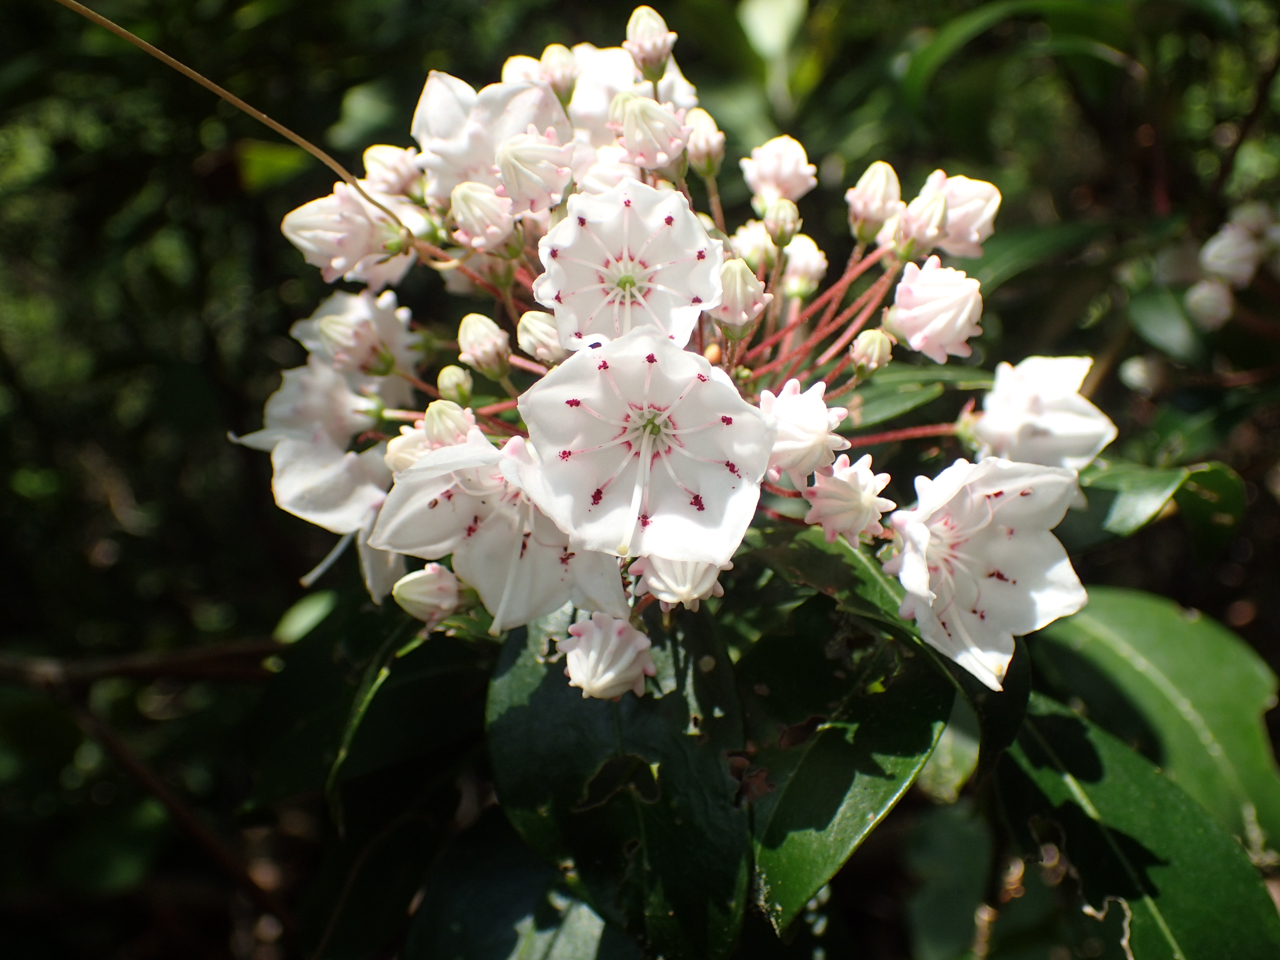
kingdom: Plantae
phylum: Tracheophyta
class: Magnoliopsida
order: Ericales
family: Ericaceae
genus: Kalmia
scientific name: Kalmia latifolia
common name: Mountain-laurel
